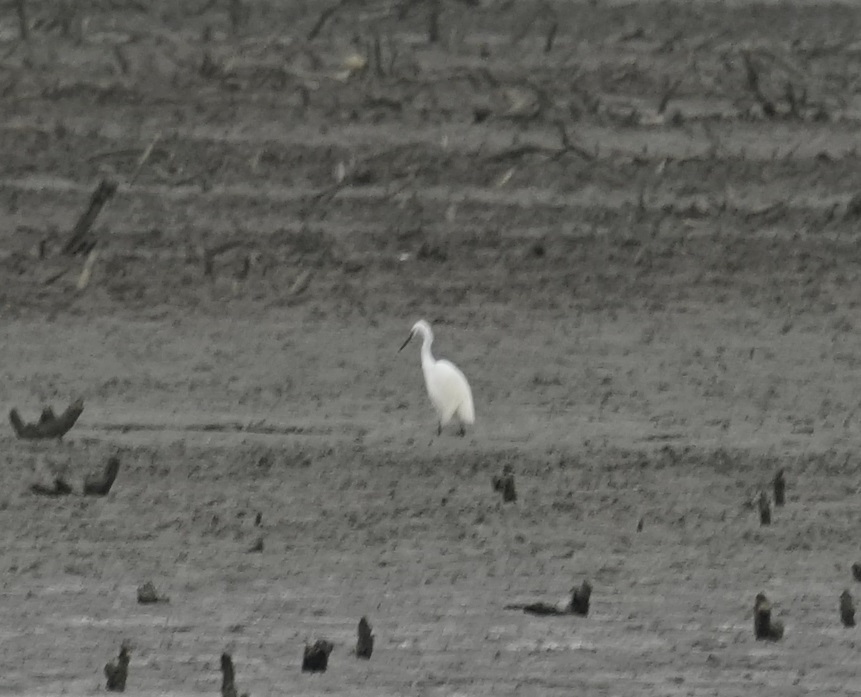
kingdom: Animalia
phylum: Chordata
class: Aves
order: Pelecaniformes
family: Ardeidae
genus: Egretta
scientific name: Egretta garzetta
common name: Little egret
